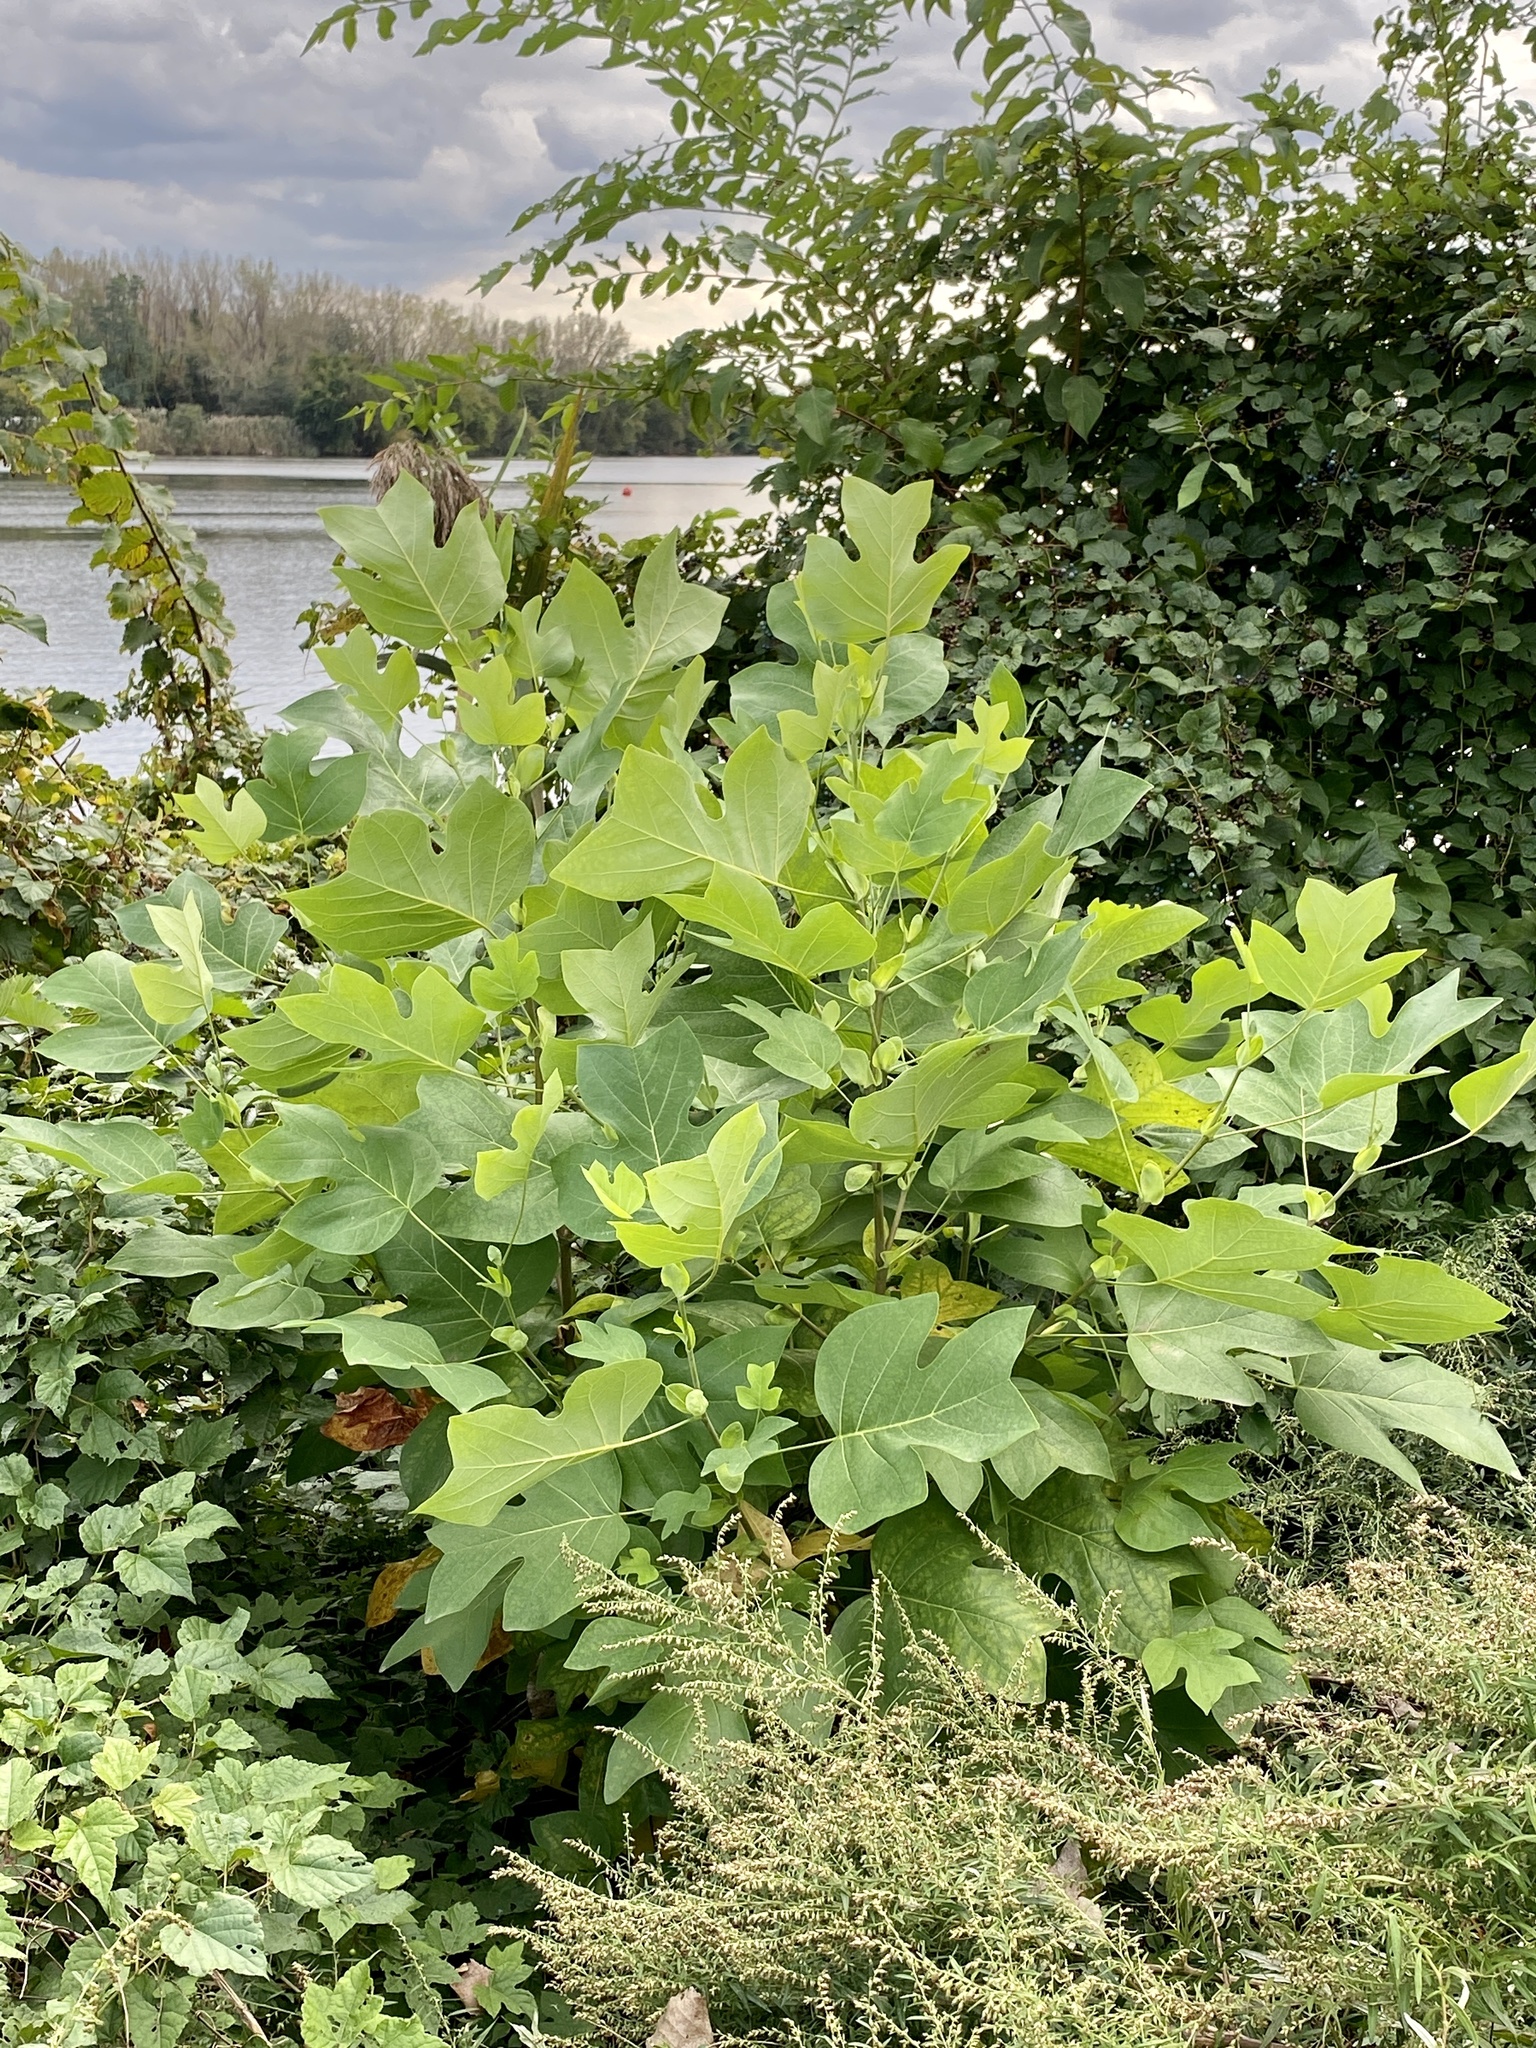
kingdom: Plantae
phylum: Tracheophyta
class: Magnoliopsida
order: Magnoliales
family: Magnoliaceae
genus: Liriodendron
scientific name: Liriodendron tulipifera
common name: Tulip tree
